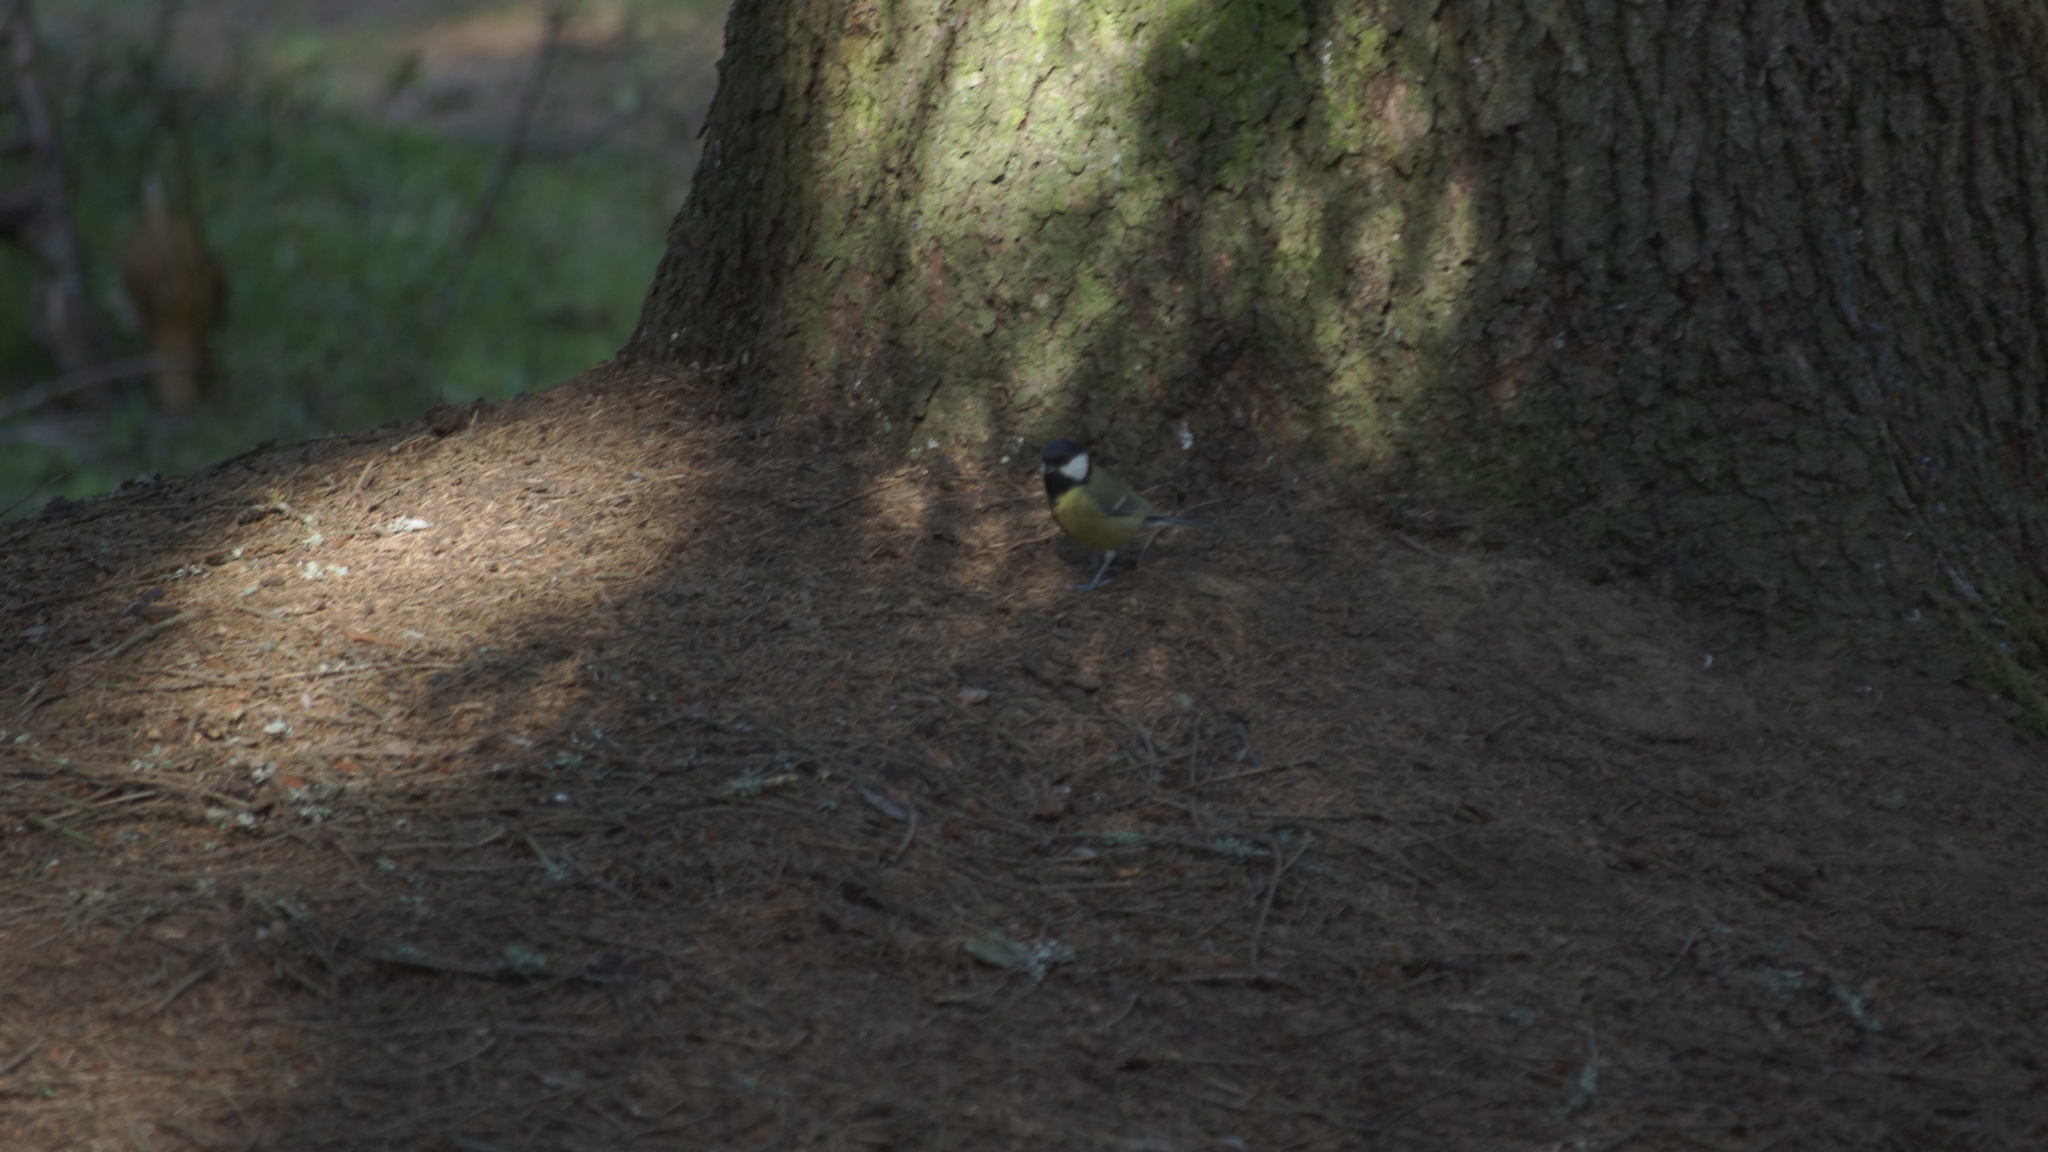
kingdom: Animalia
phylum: Chordata
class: Aves
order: Passeriformes
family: Paridae
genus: Parus
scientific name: Parus major
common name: Great tit
